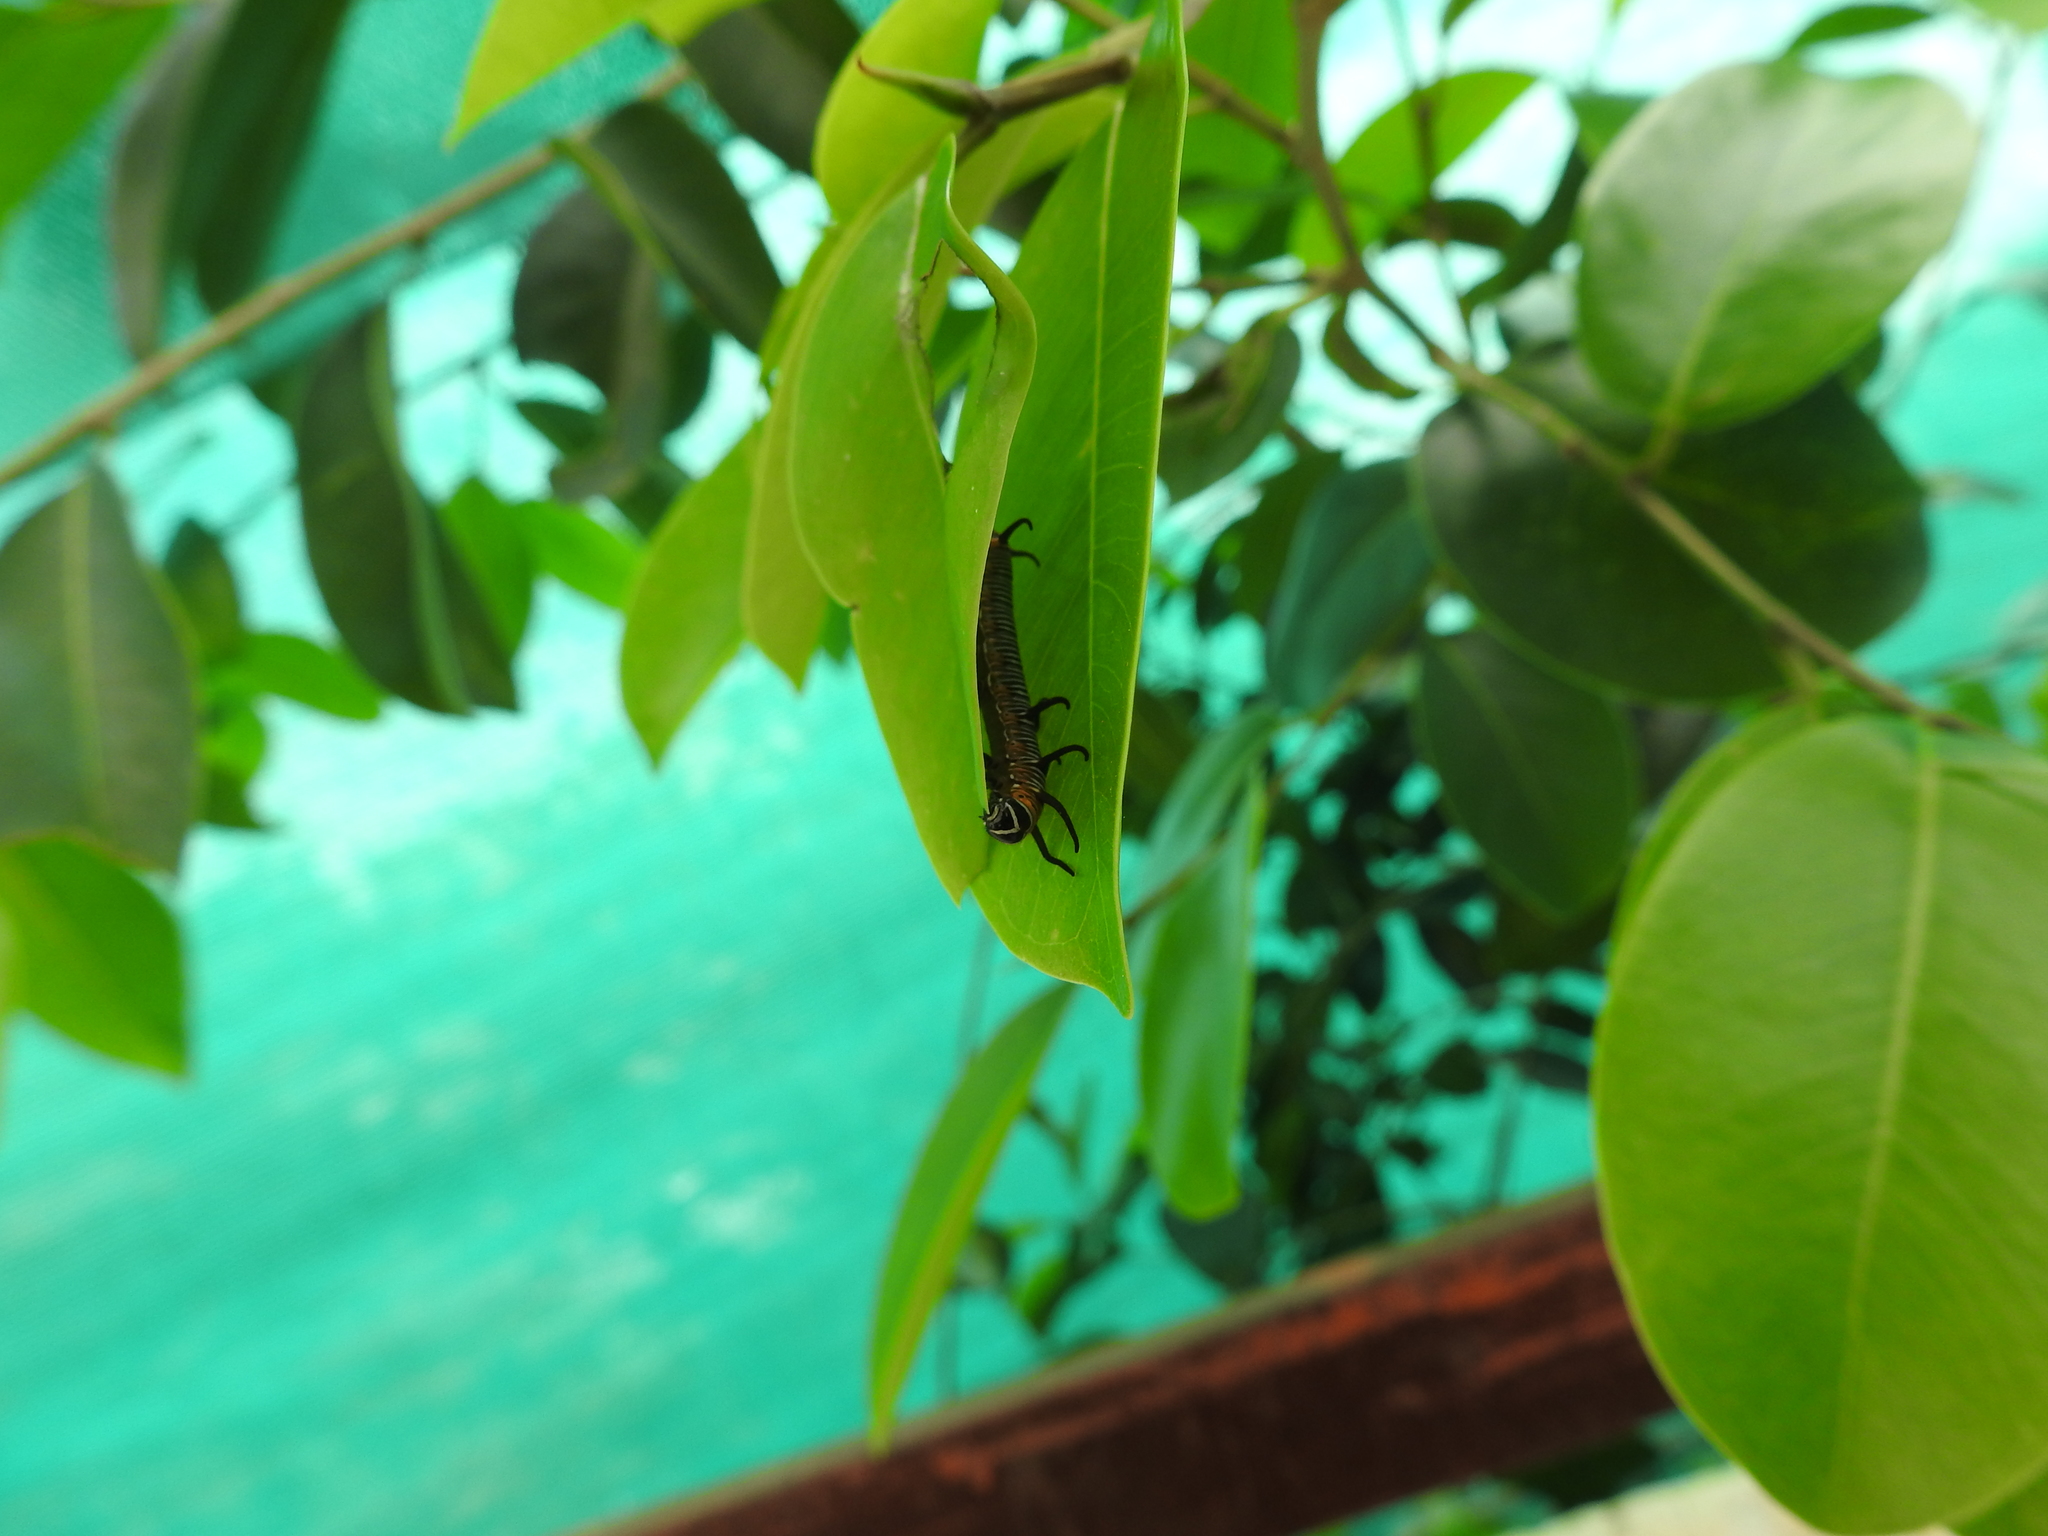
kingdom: Animalia
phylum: Arthropoda
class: Insecta
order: Lepidoptera
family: Nymphalidae
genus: Euploea
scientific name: Euploea core
